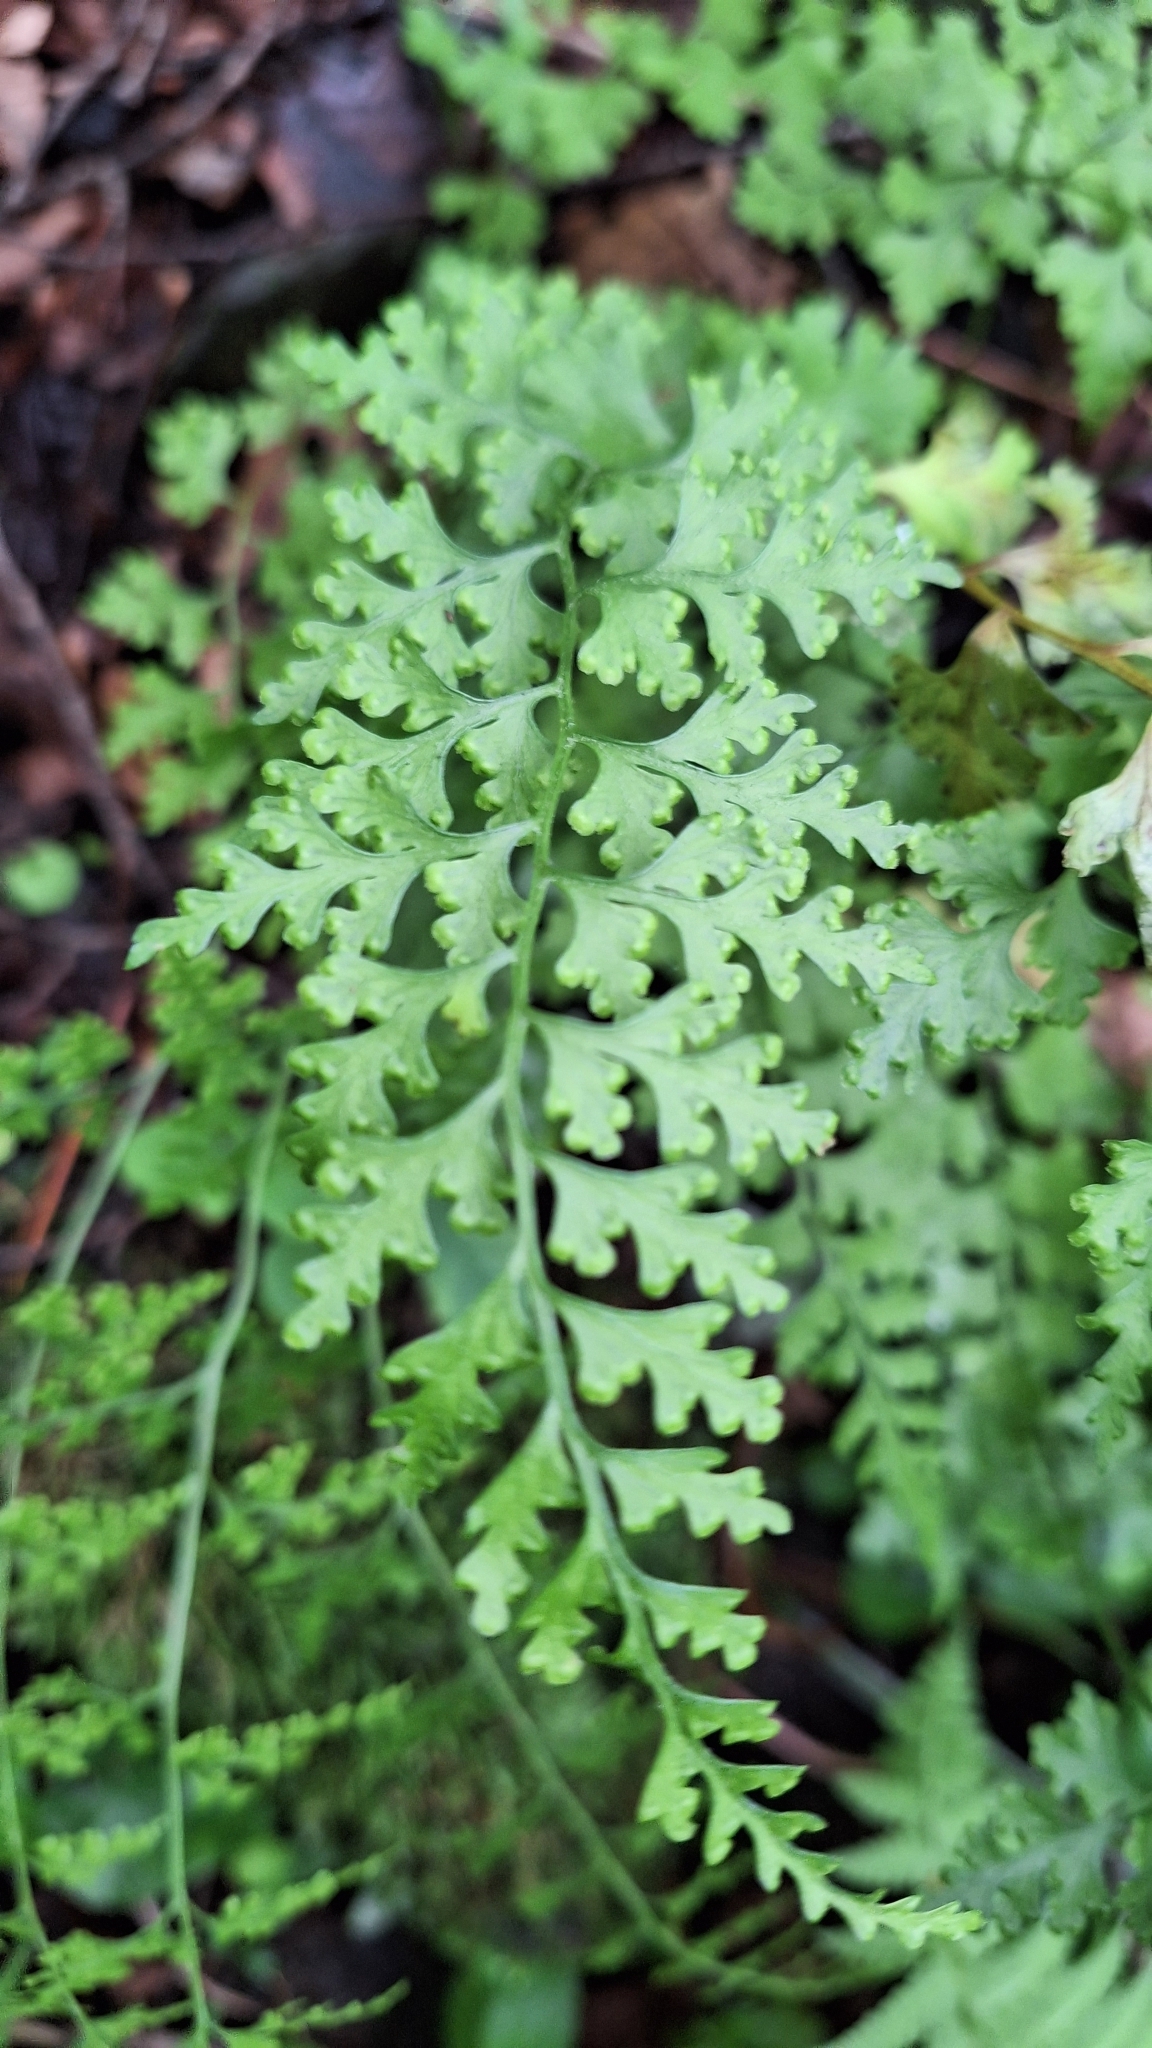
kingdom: Plantae
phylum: Tracheophyta
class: Polypodiopsida
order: Polypodiales
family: Dennstaedtiaceae
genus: Dennstaedtia
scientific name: Dennstaedtia wilfordii
